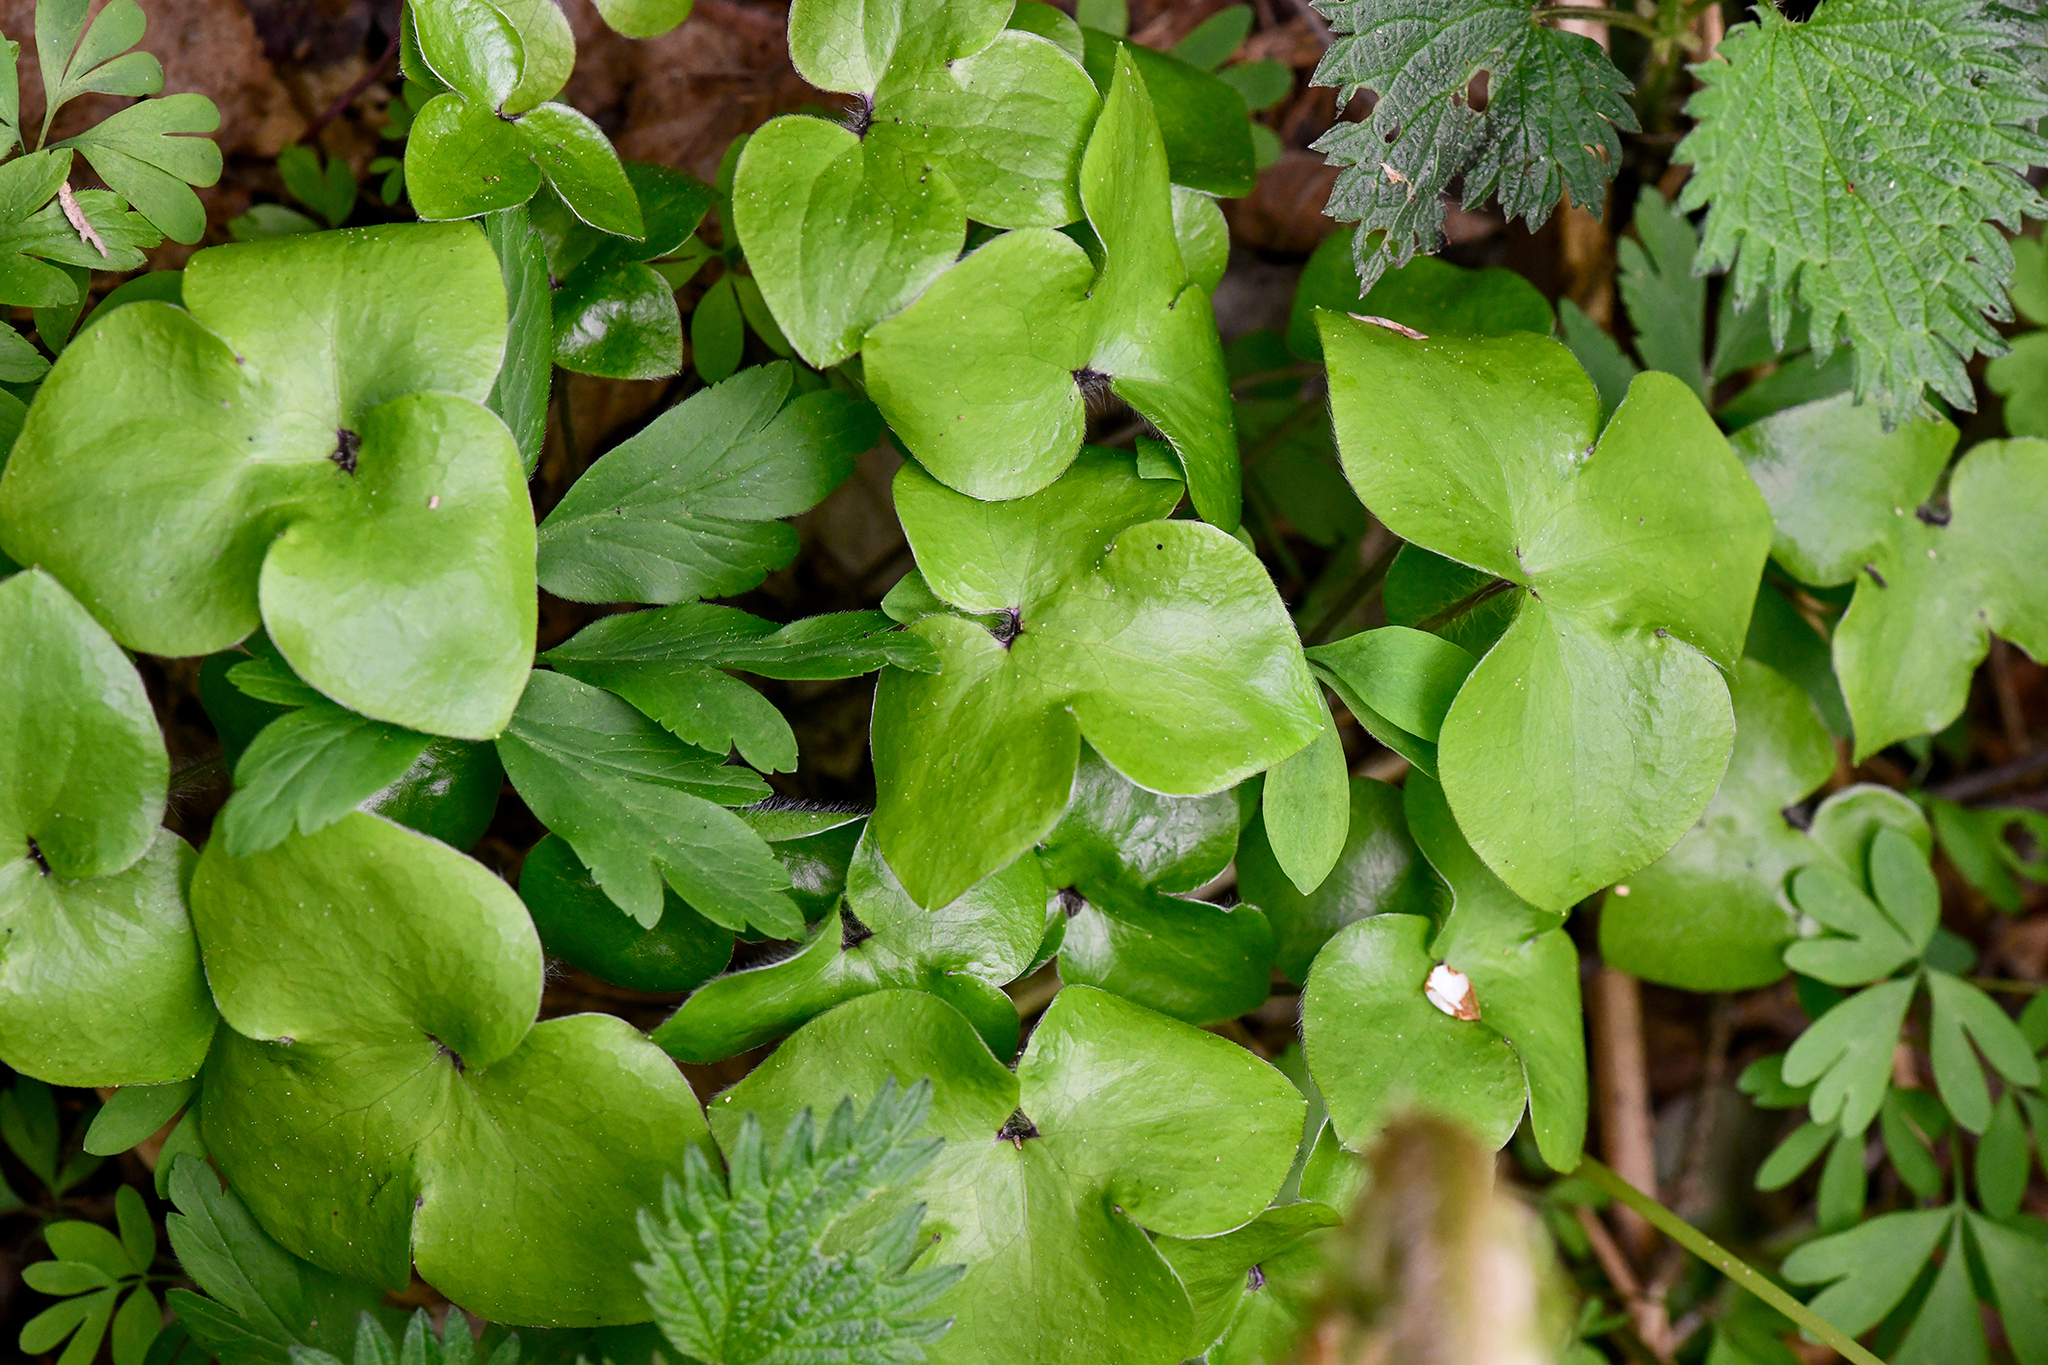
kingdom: Plantae
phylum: Tracheophyta
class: Magnoliopsida
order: Ranunculales
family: Ranunculaceae
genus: Hepatica
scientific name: Hepatica nobilis
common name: Liverleaf
